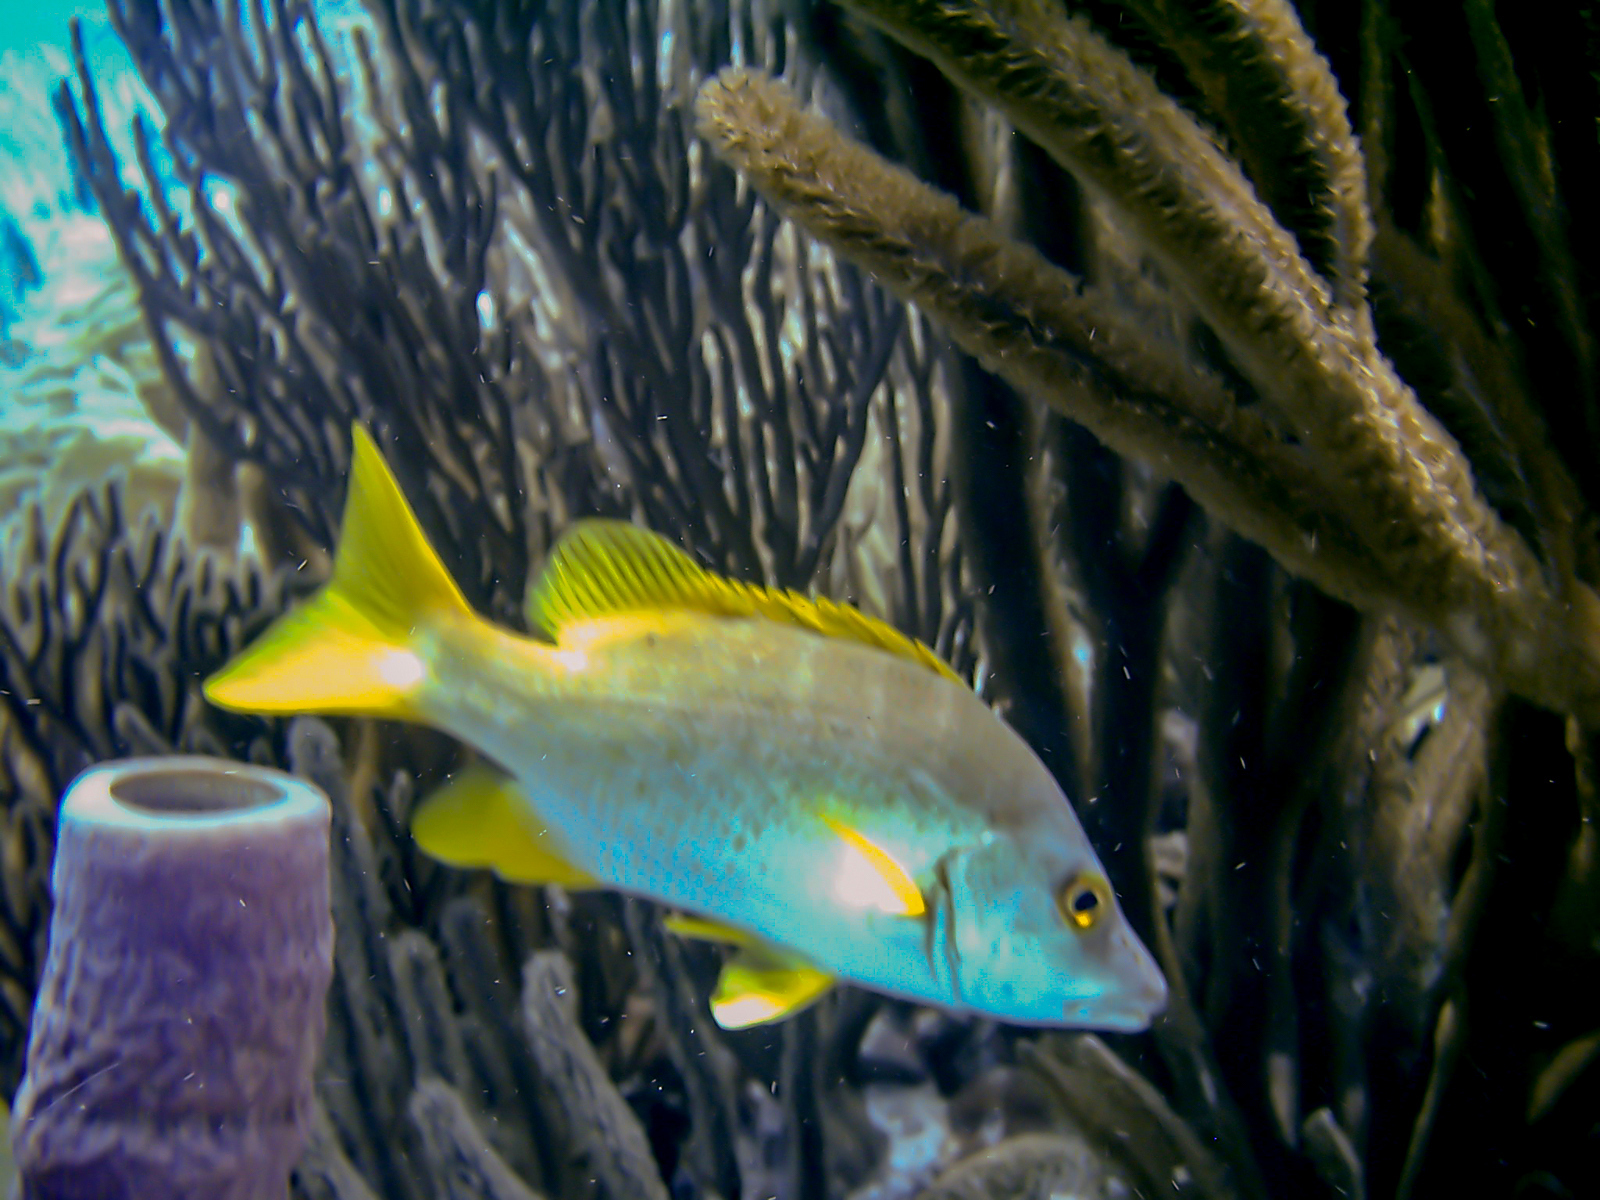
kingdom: Animalia
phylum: Chordata
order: Perciformes
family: Lutjanidae
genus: Lutjanus
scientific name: Lutjanus apodus
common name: Schoolmaster
